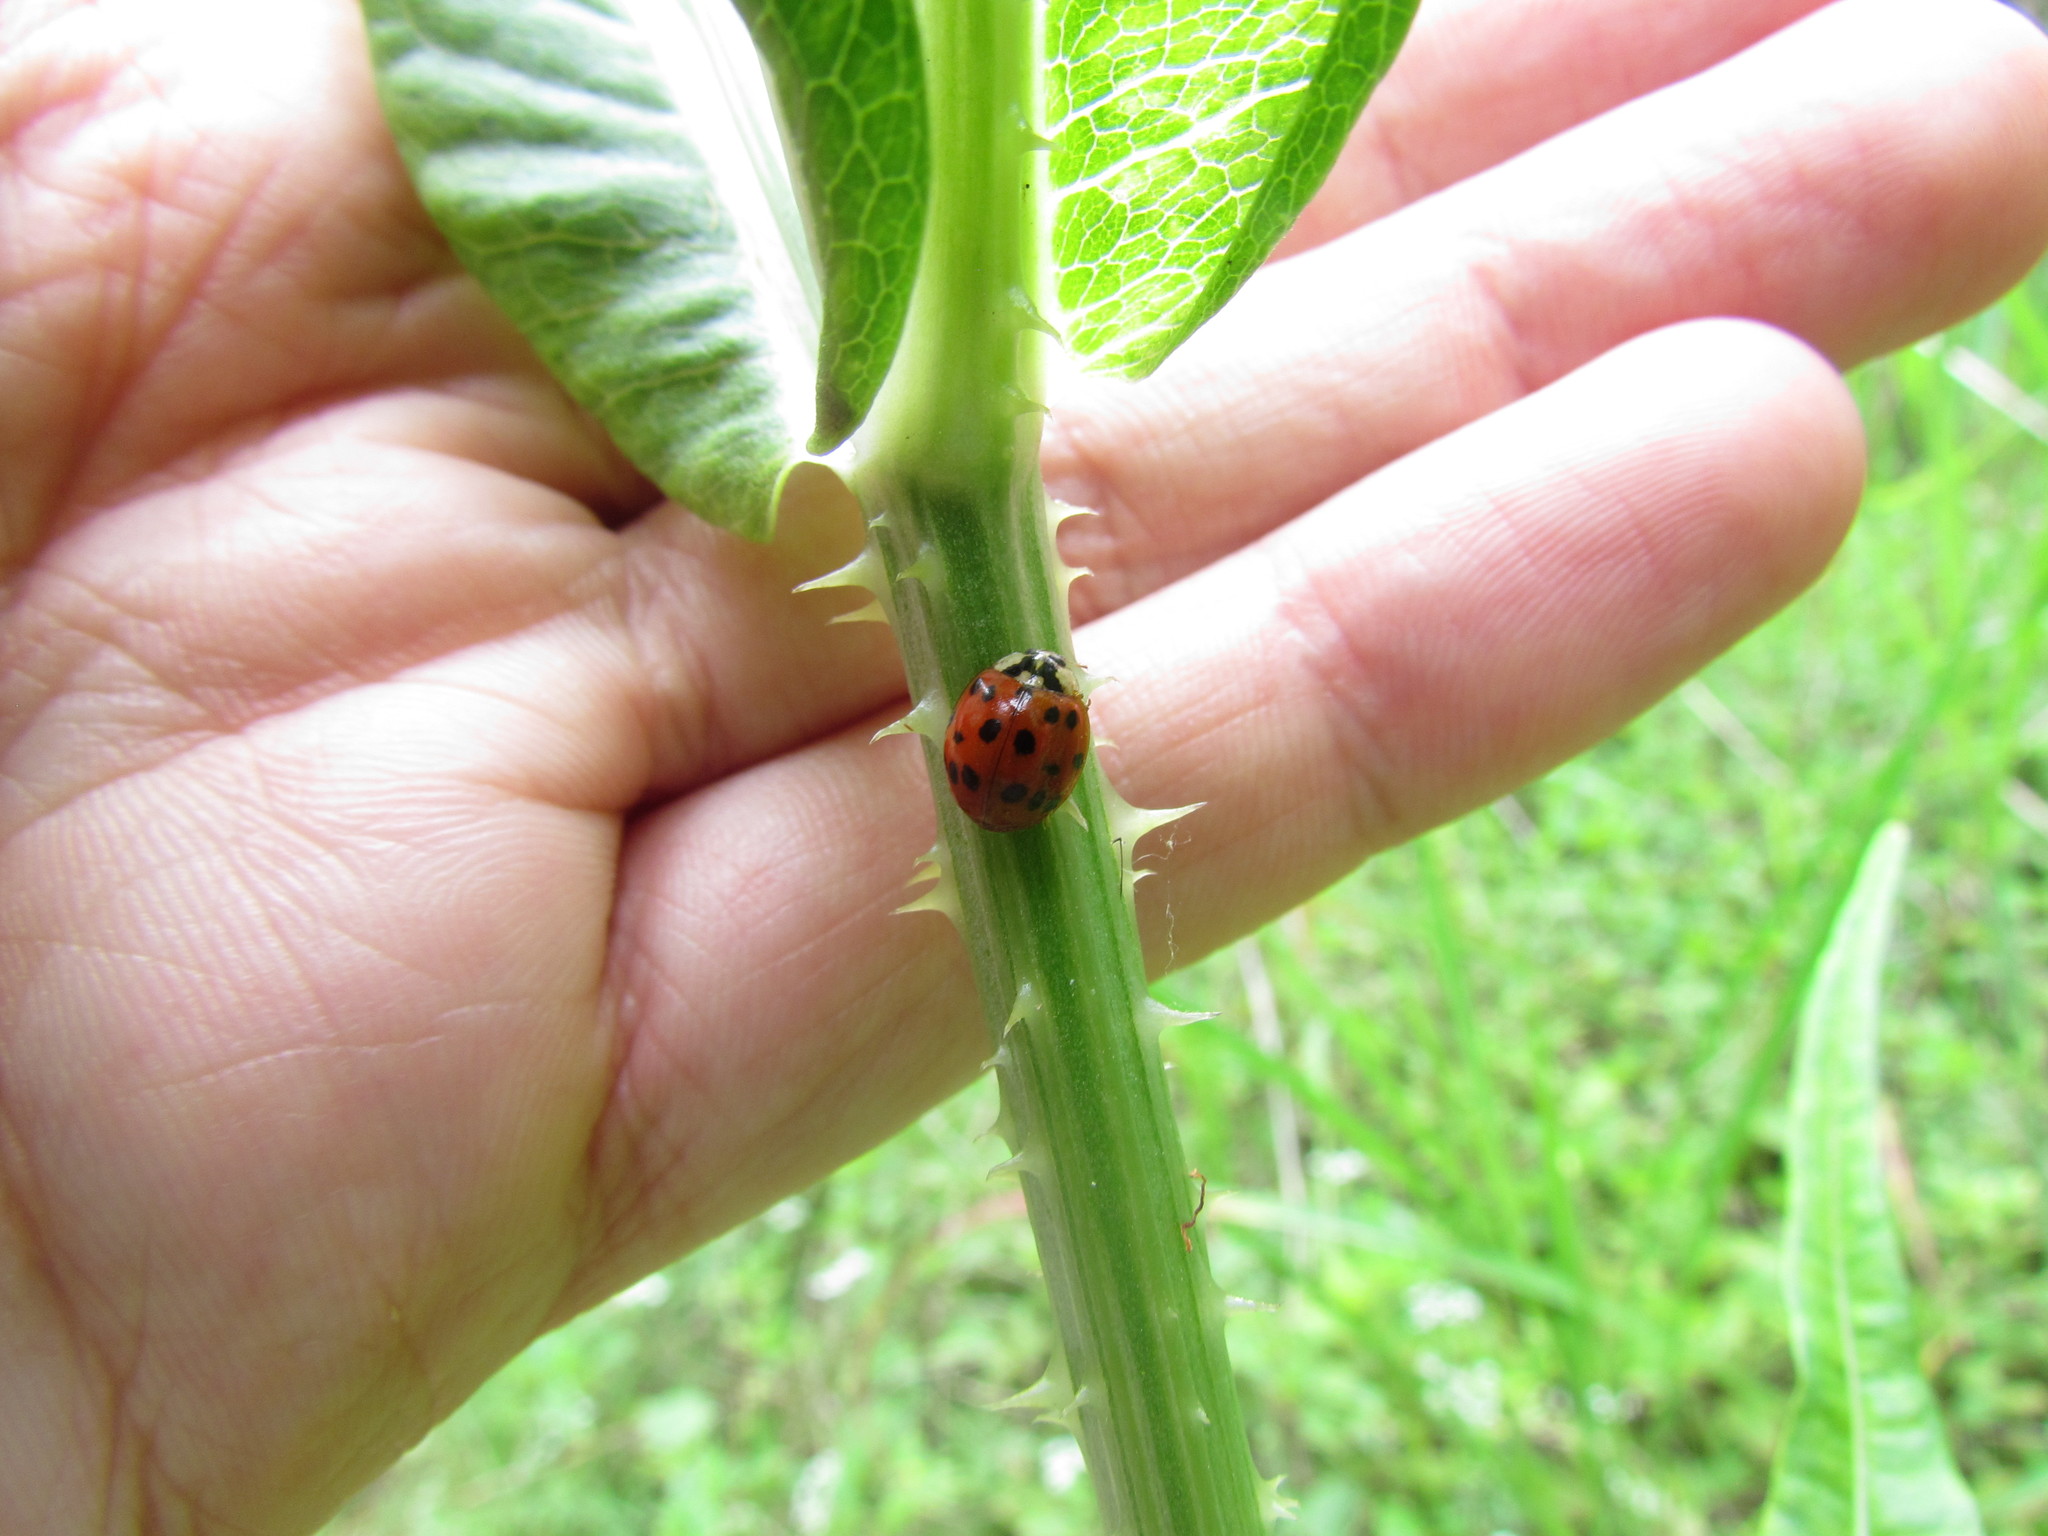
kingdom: Animalia
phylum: Arthropoda
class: Insecta
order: Coleoptera
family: Coccinellidae
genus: Harmonia
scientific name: Harmonia axyridis
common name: Harlequin ladybird
